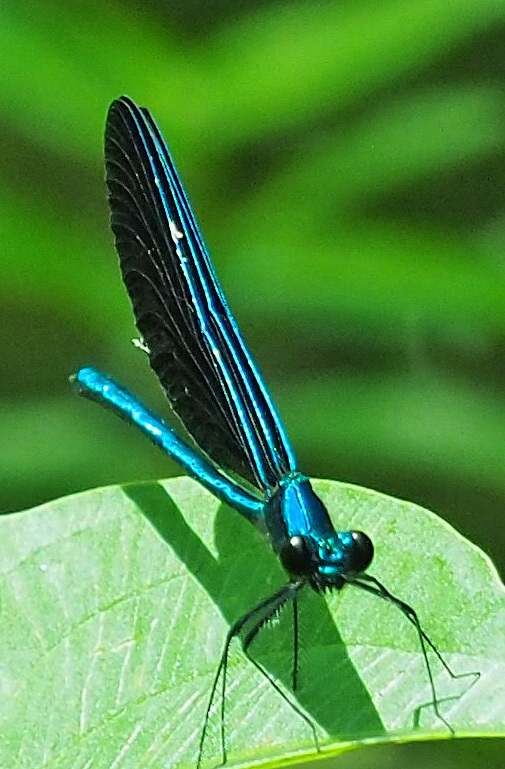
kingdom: Animalia
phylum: Arthropoda
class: Insecta
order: Odonata
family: Calopterygidae
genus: Calopteryx
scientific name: Calopteryx maculata
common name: Ebony jewelwing
